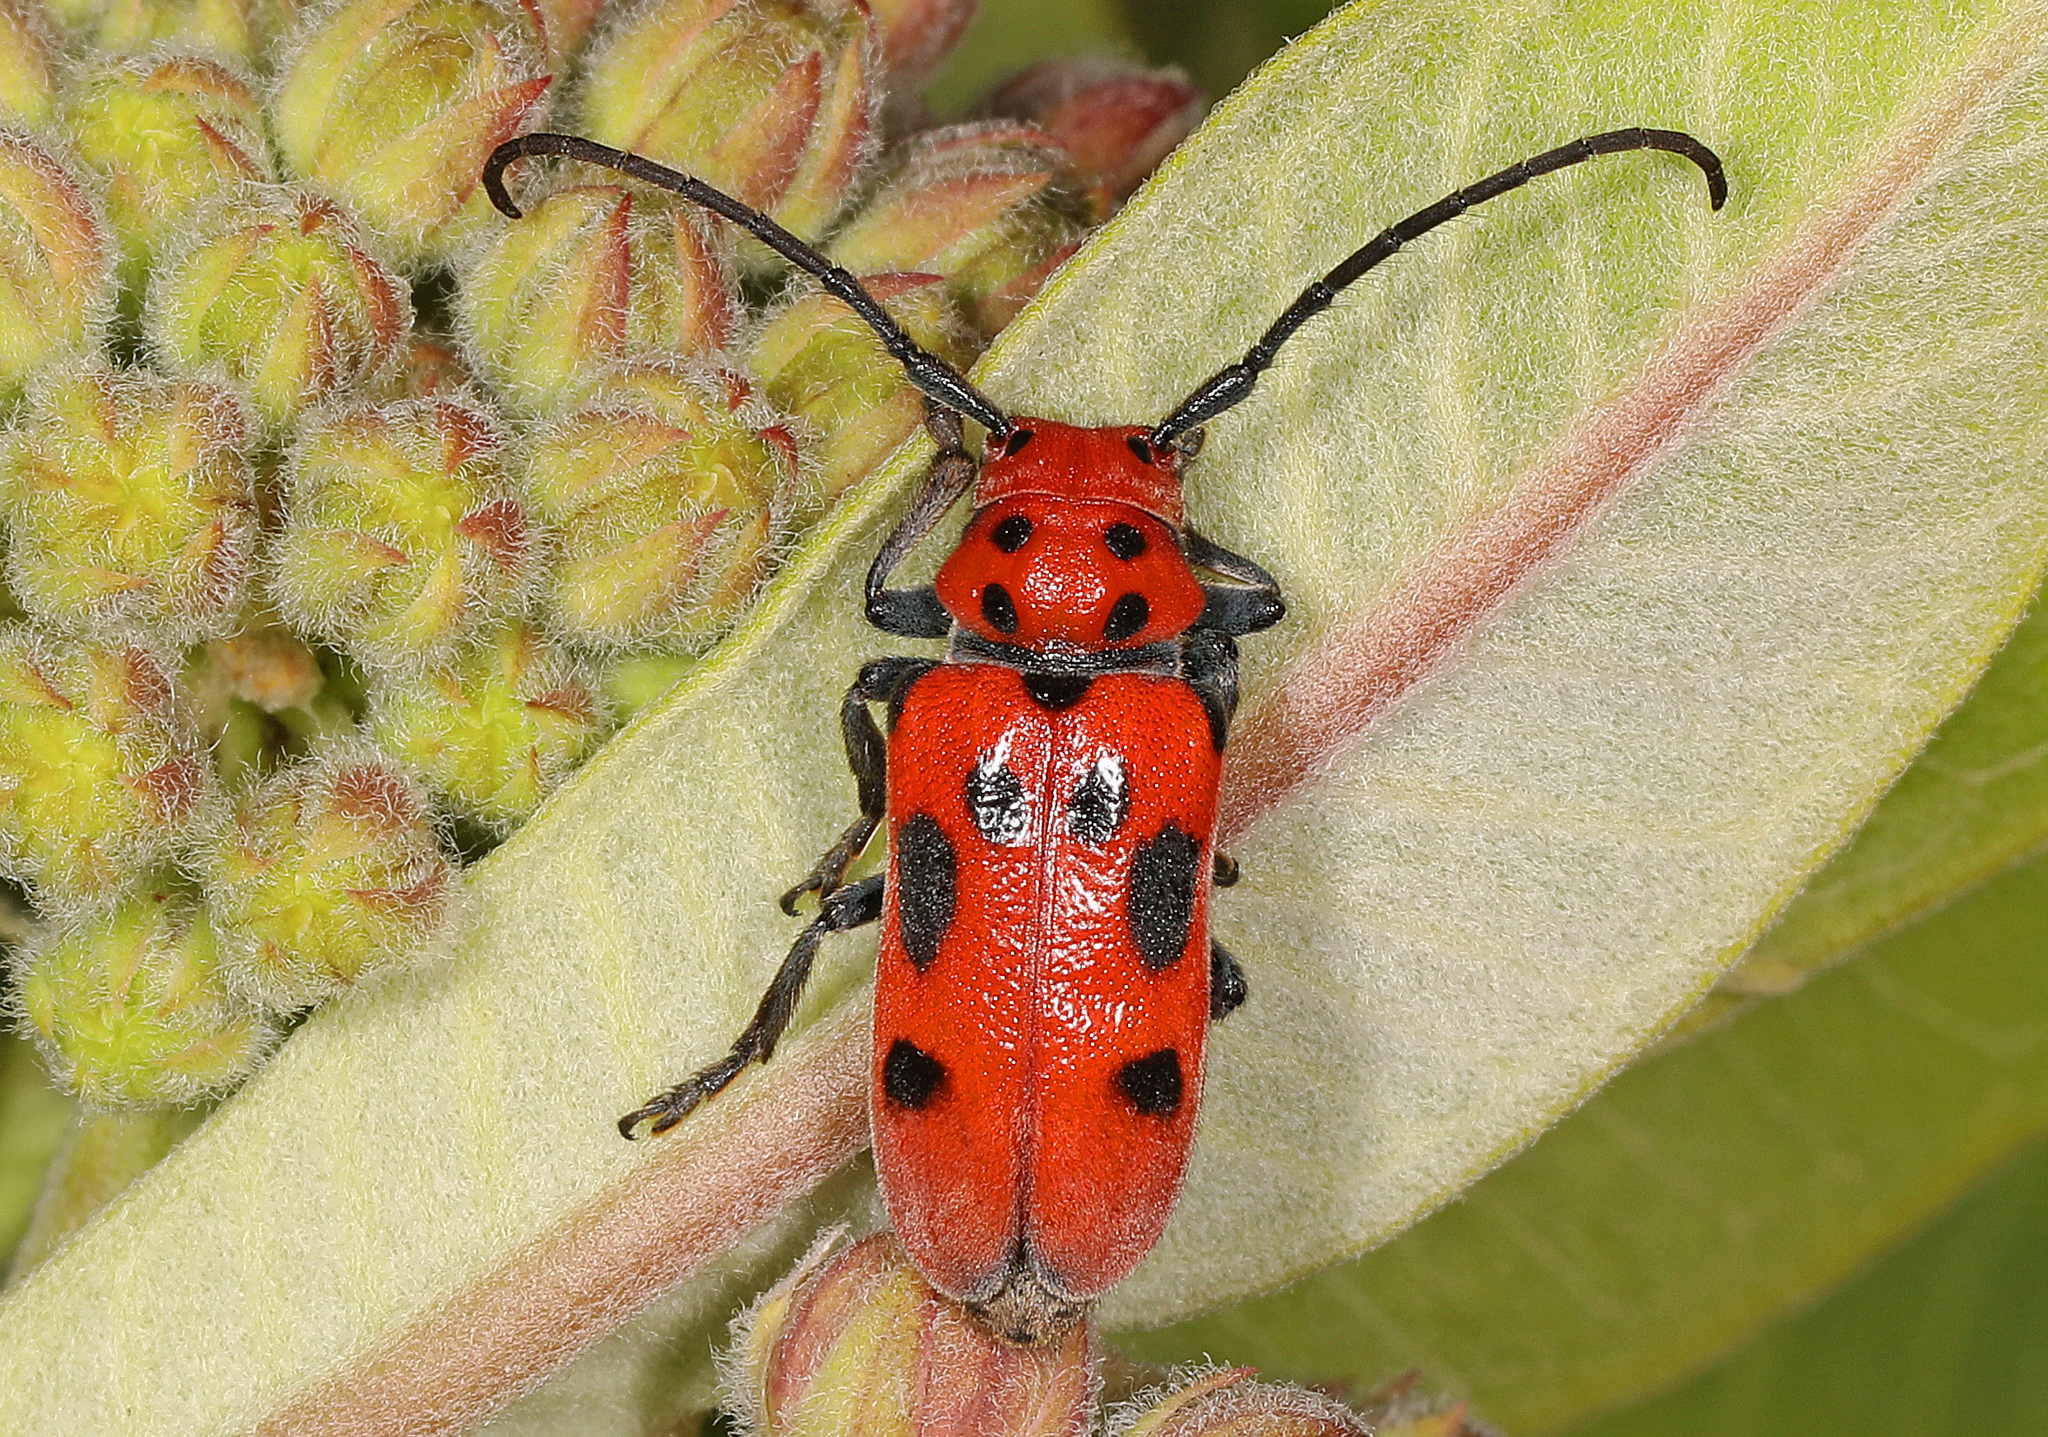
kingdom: Animalia
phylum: Arthropoda
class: Insecta
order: Coleoptera
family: Cerambycidae
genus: Tetraopes
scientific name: Tetraopes tetrophthalmus
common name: Red milkweed beetle
